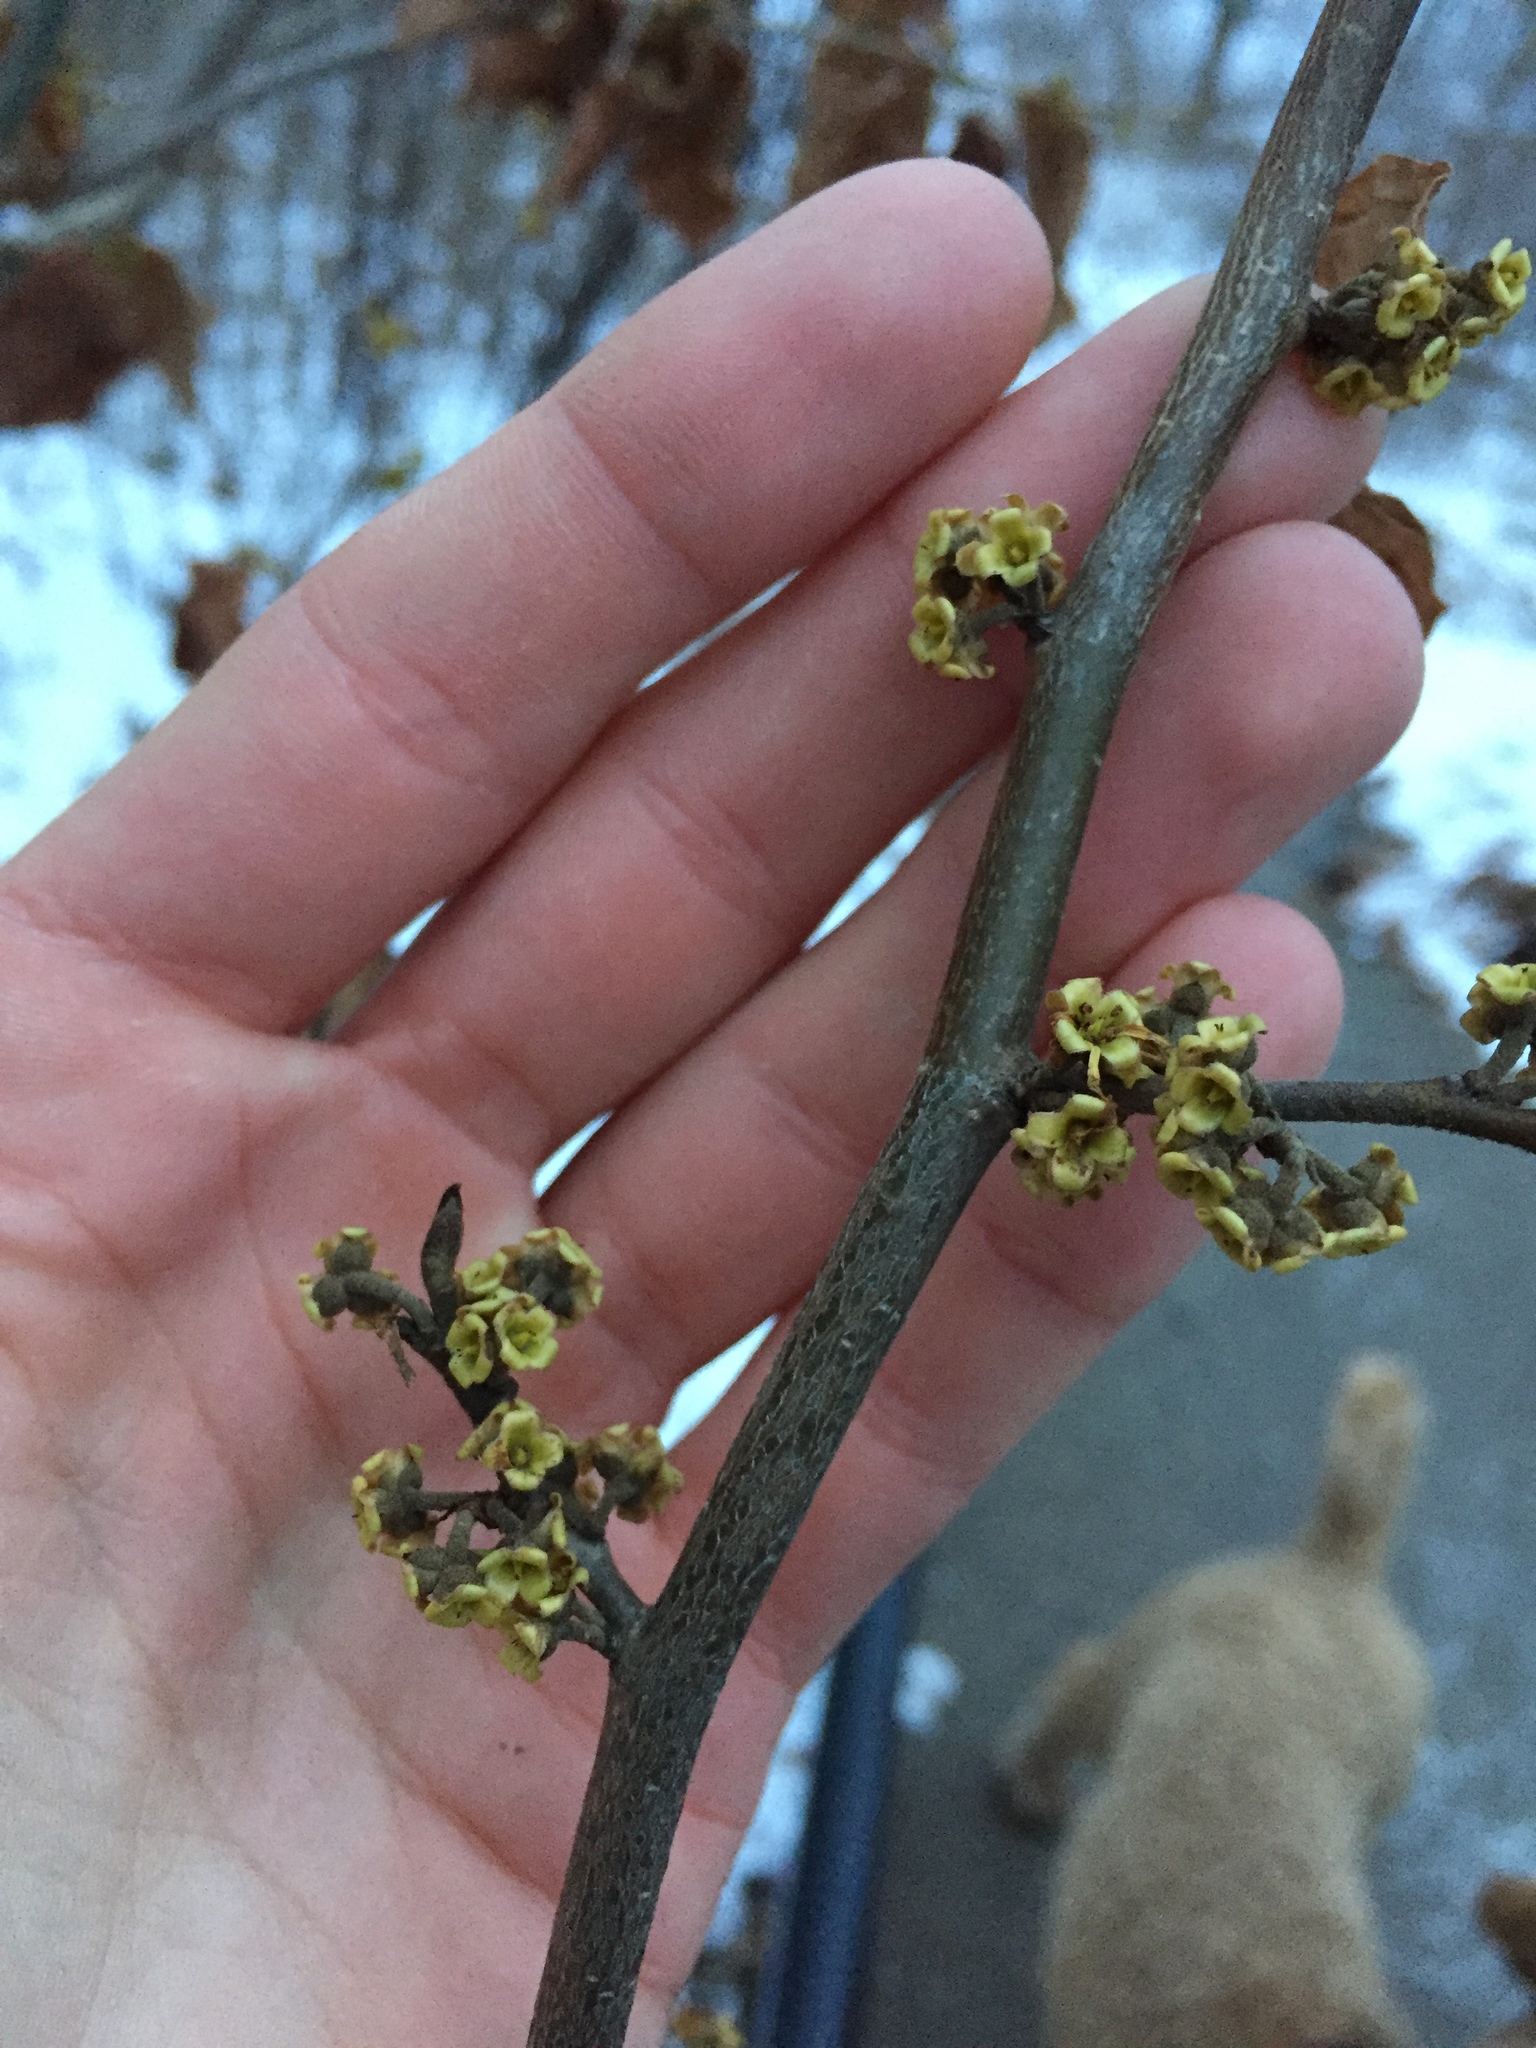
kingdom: Plantae
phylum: Tracheophyta
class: Magnoliopsida
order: Saxifragales
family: Hamamelidaceae
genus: Hamamelis
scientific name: Hamamelis virginiana
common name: Witch-hazel
